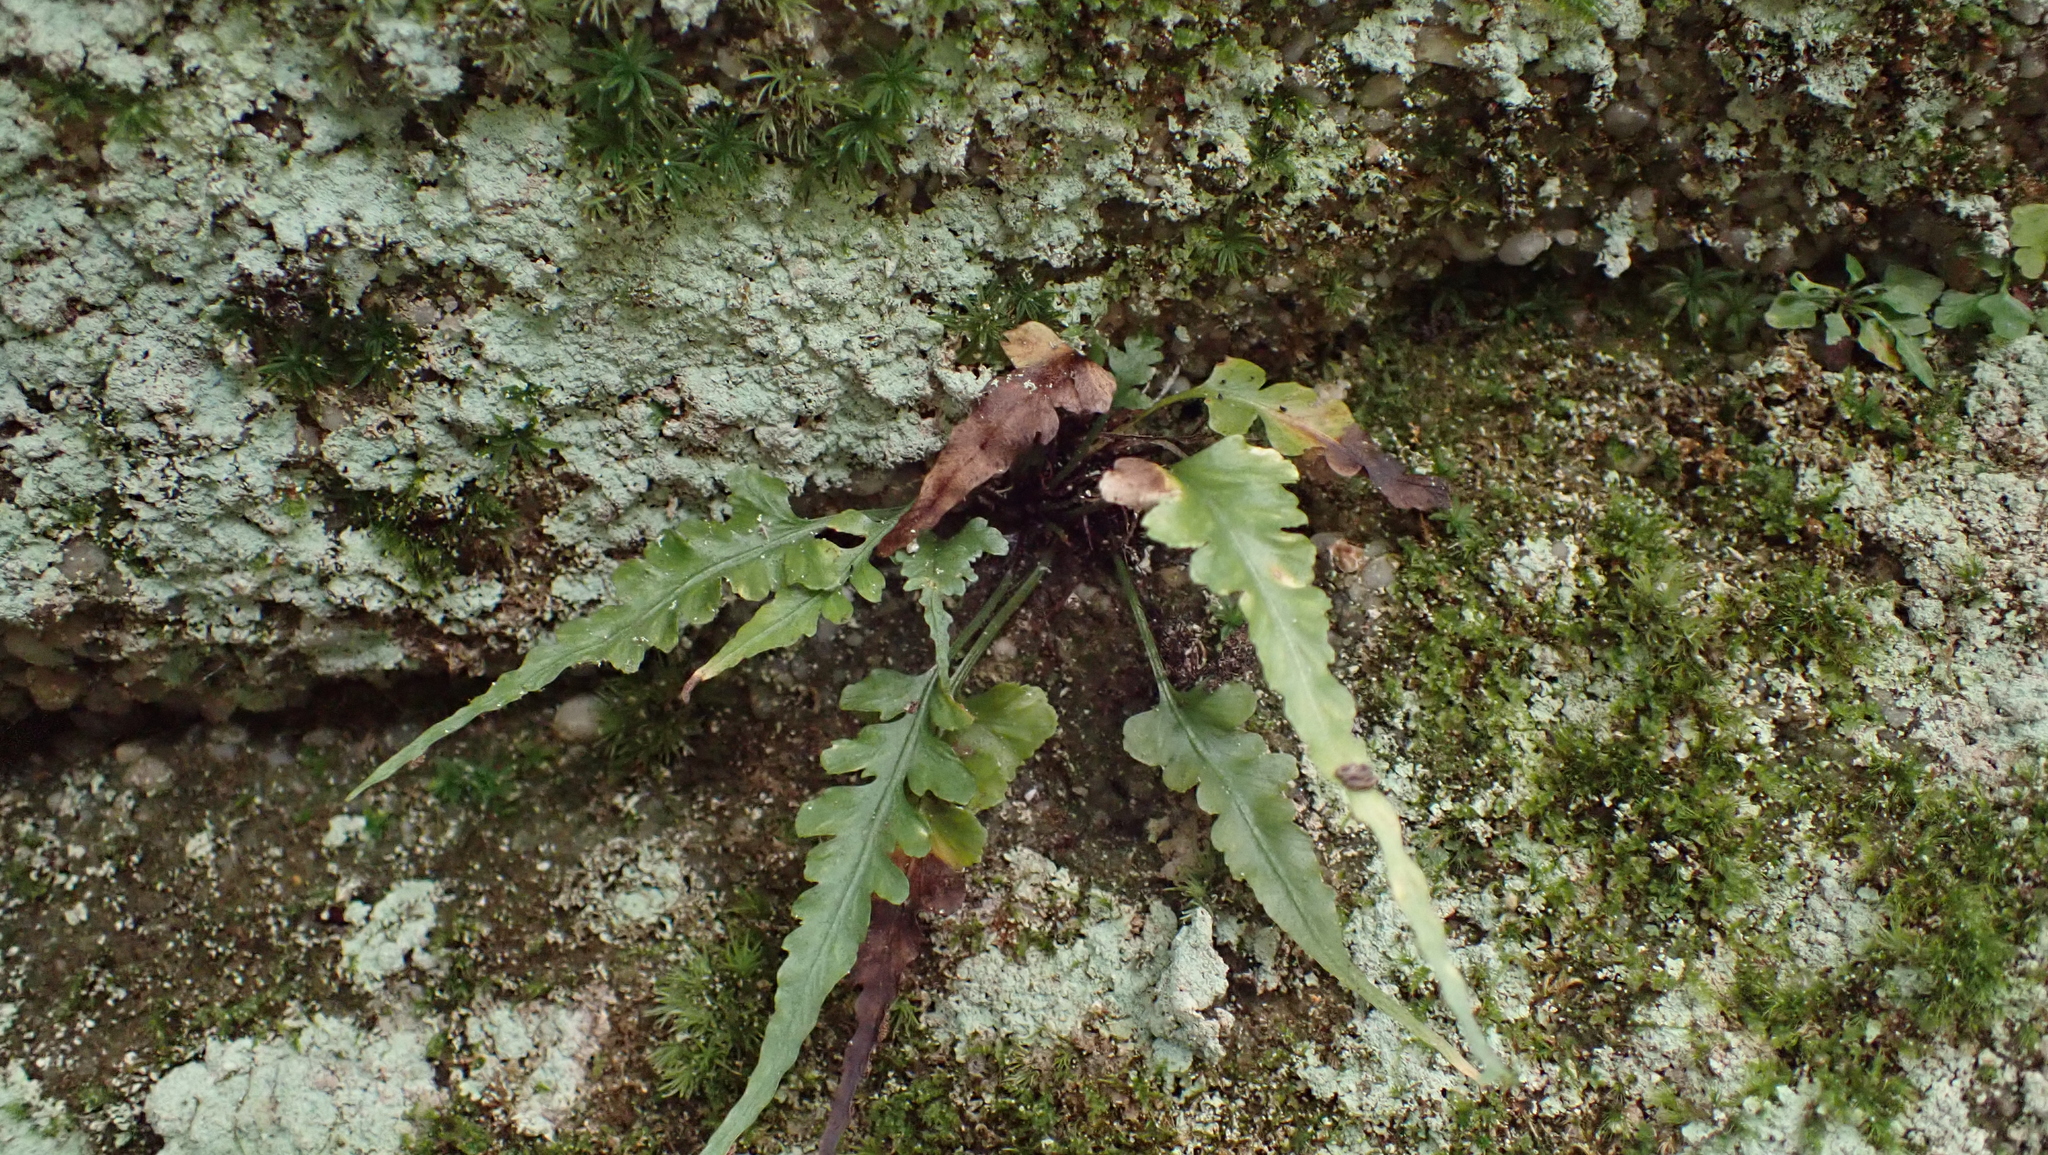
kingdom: Plantae
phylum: Tracheophyta
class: Polypodiopsida
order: Polypodiales
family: Aspleniaceae
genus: Asplenium
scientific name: Asplenium pinnatifidum
